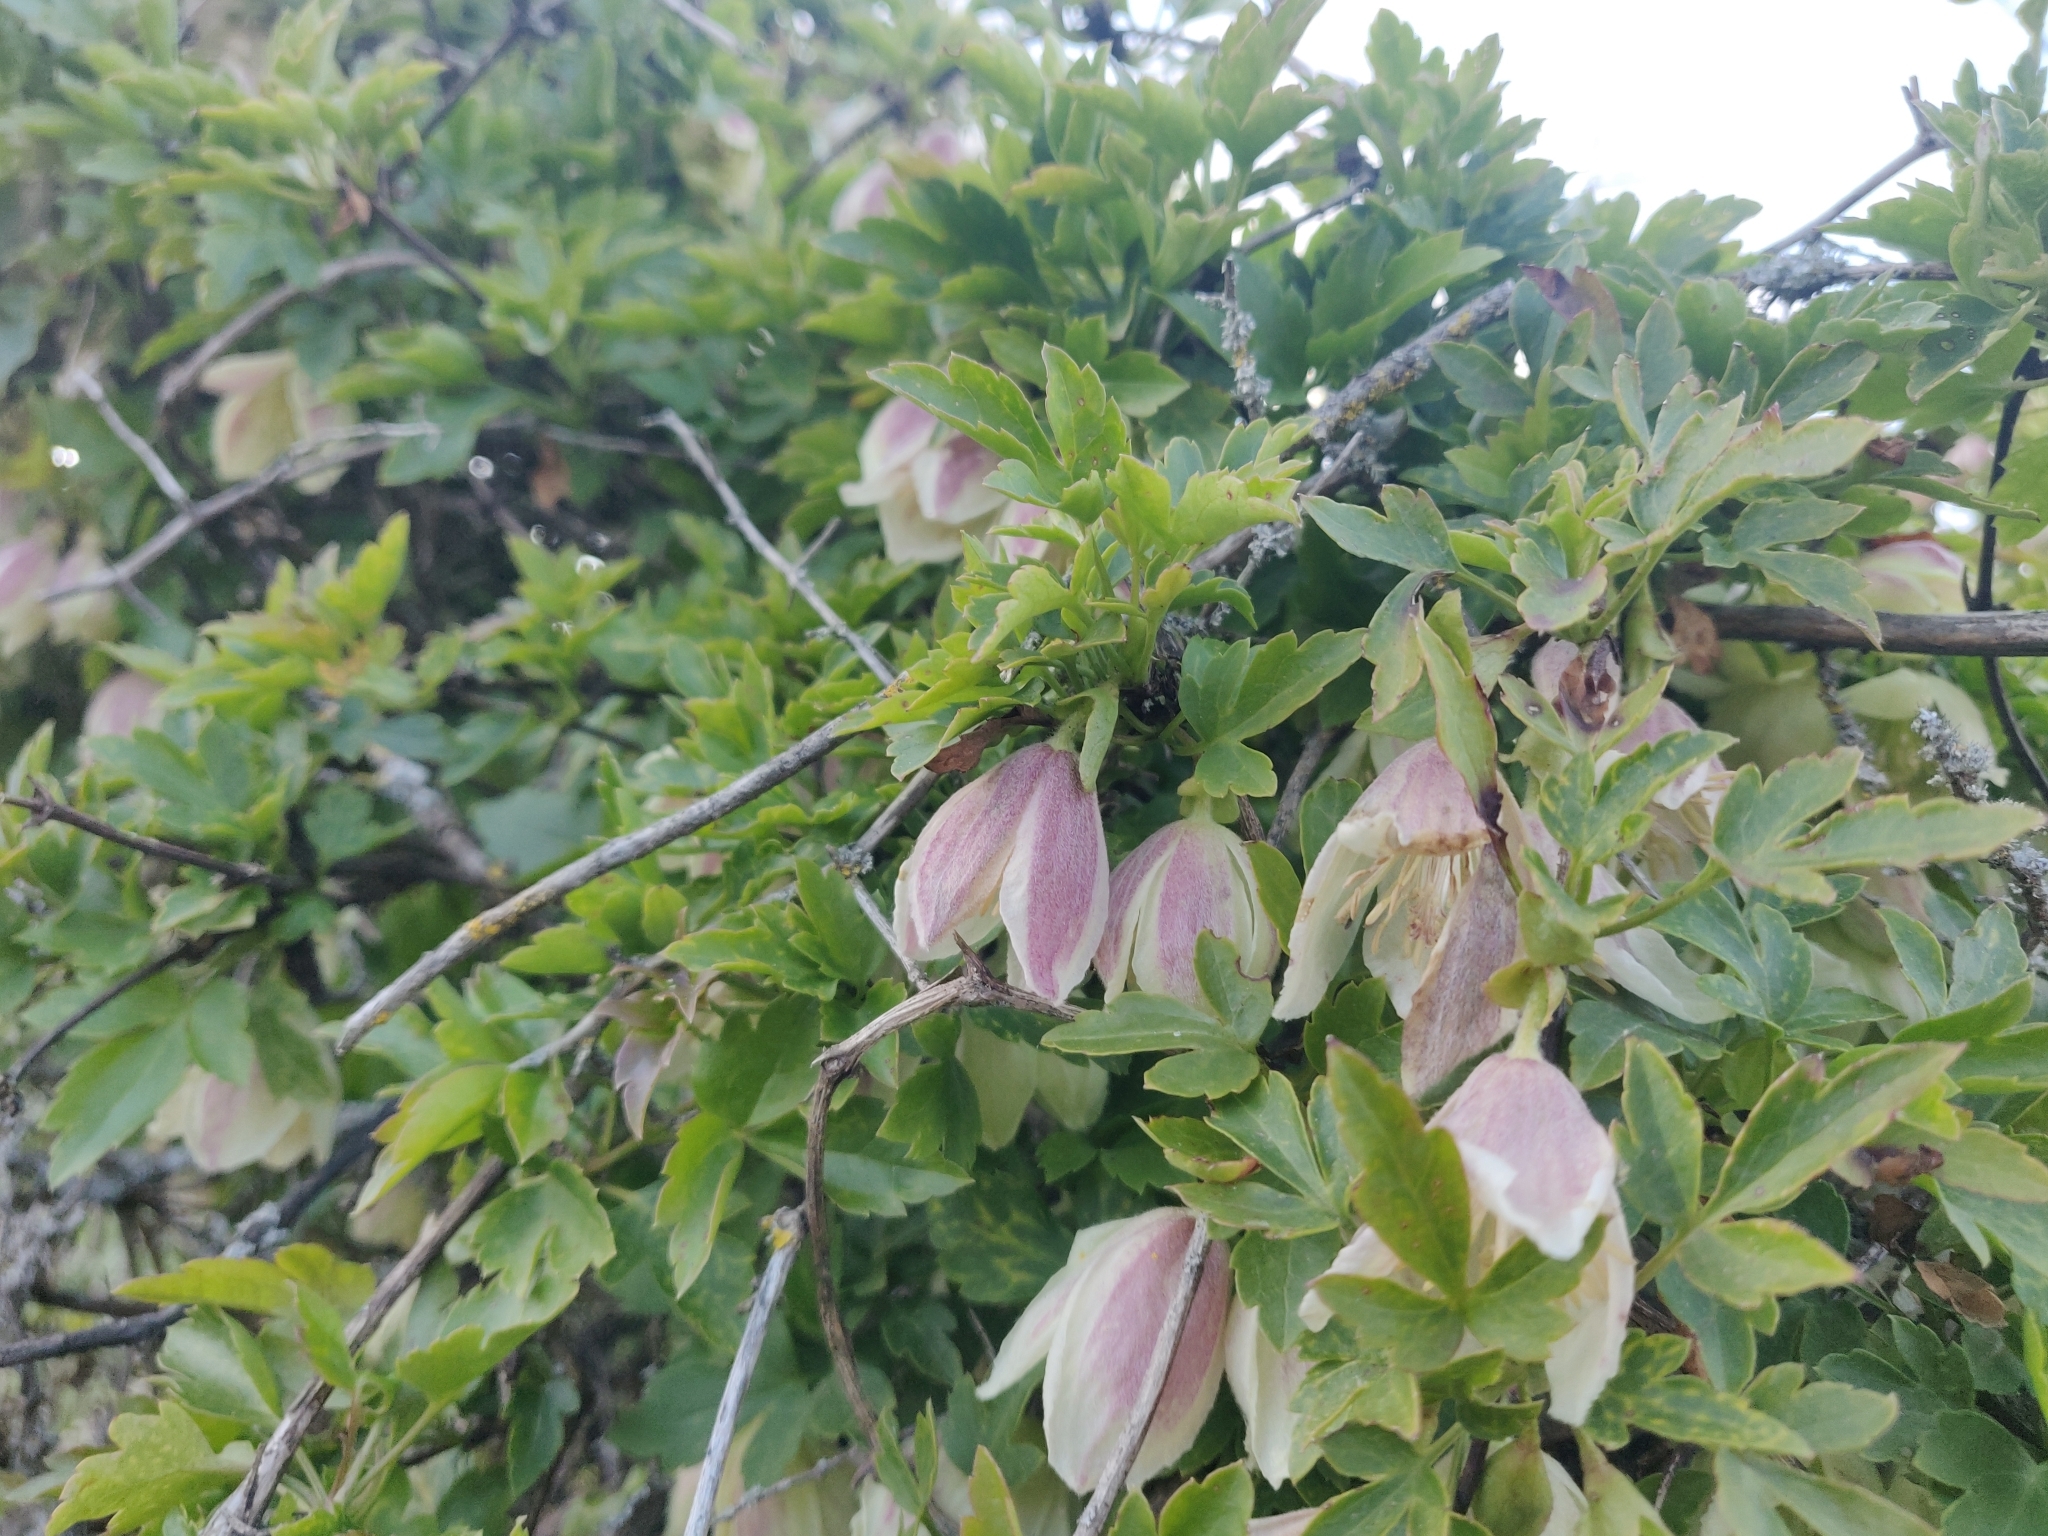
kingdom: Plantae
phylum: Tracheophyta
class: Magnoliopsida
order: Ranunculales
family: Ranunculaceae
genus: Clematis
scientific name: Clematis cirrhosa
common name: Early virgin's-bower
